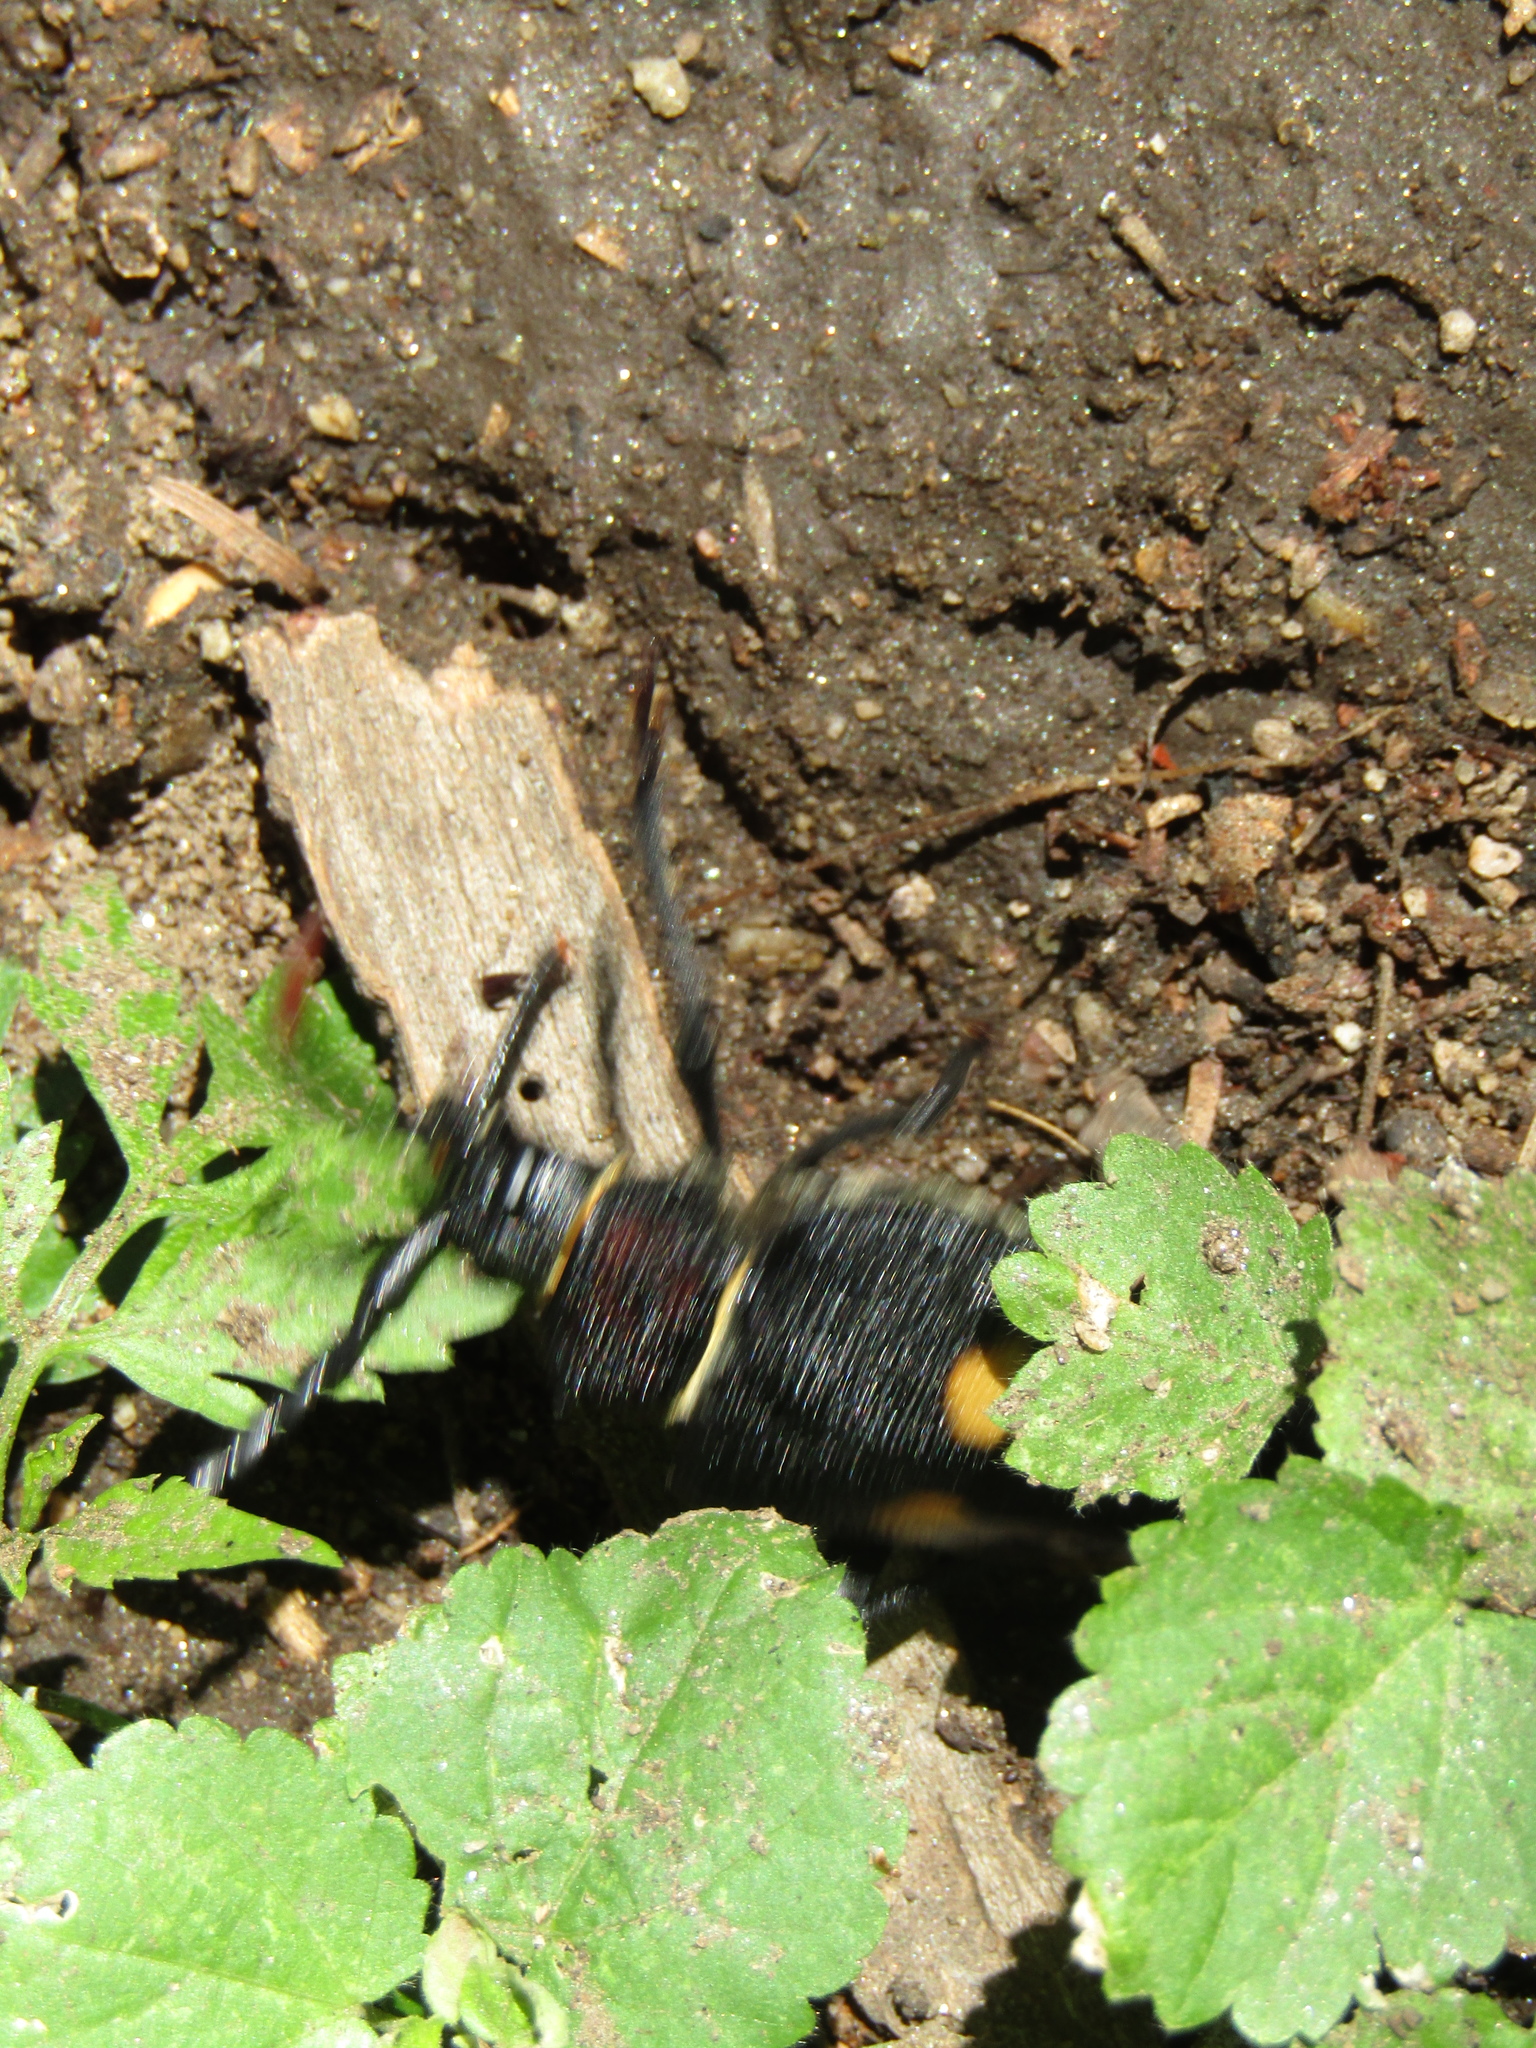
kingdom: Animalia
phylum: Arthropoda
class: Insecta
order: Coleoptera
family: Cerambycidae
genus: Calocomus
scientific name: Calocomus desmarestii
